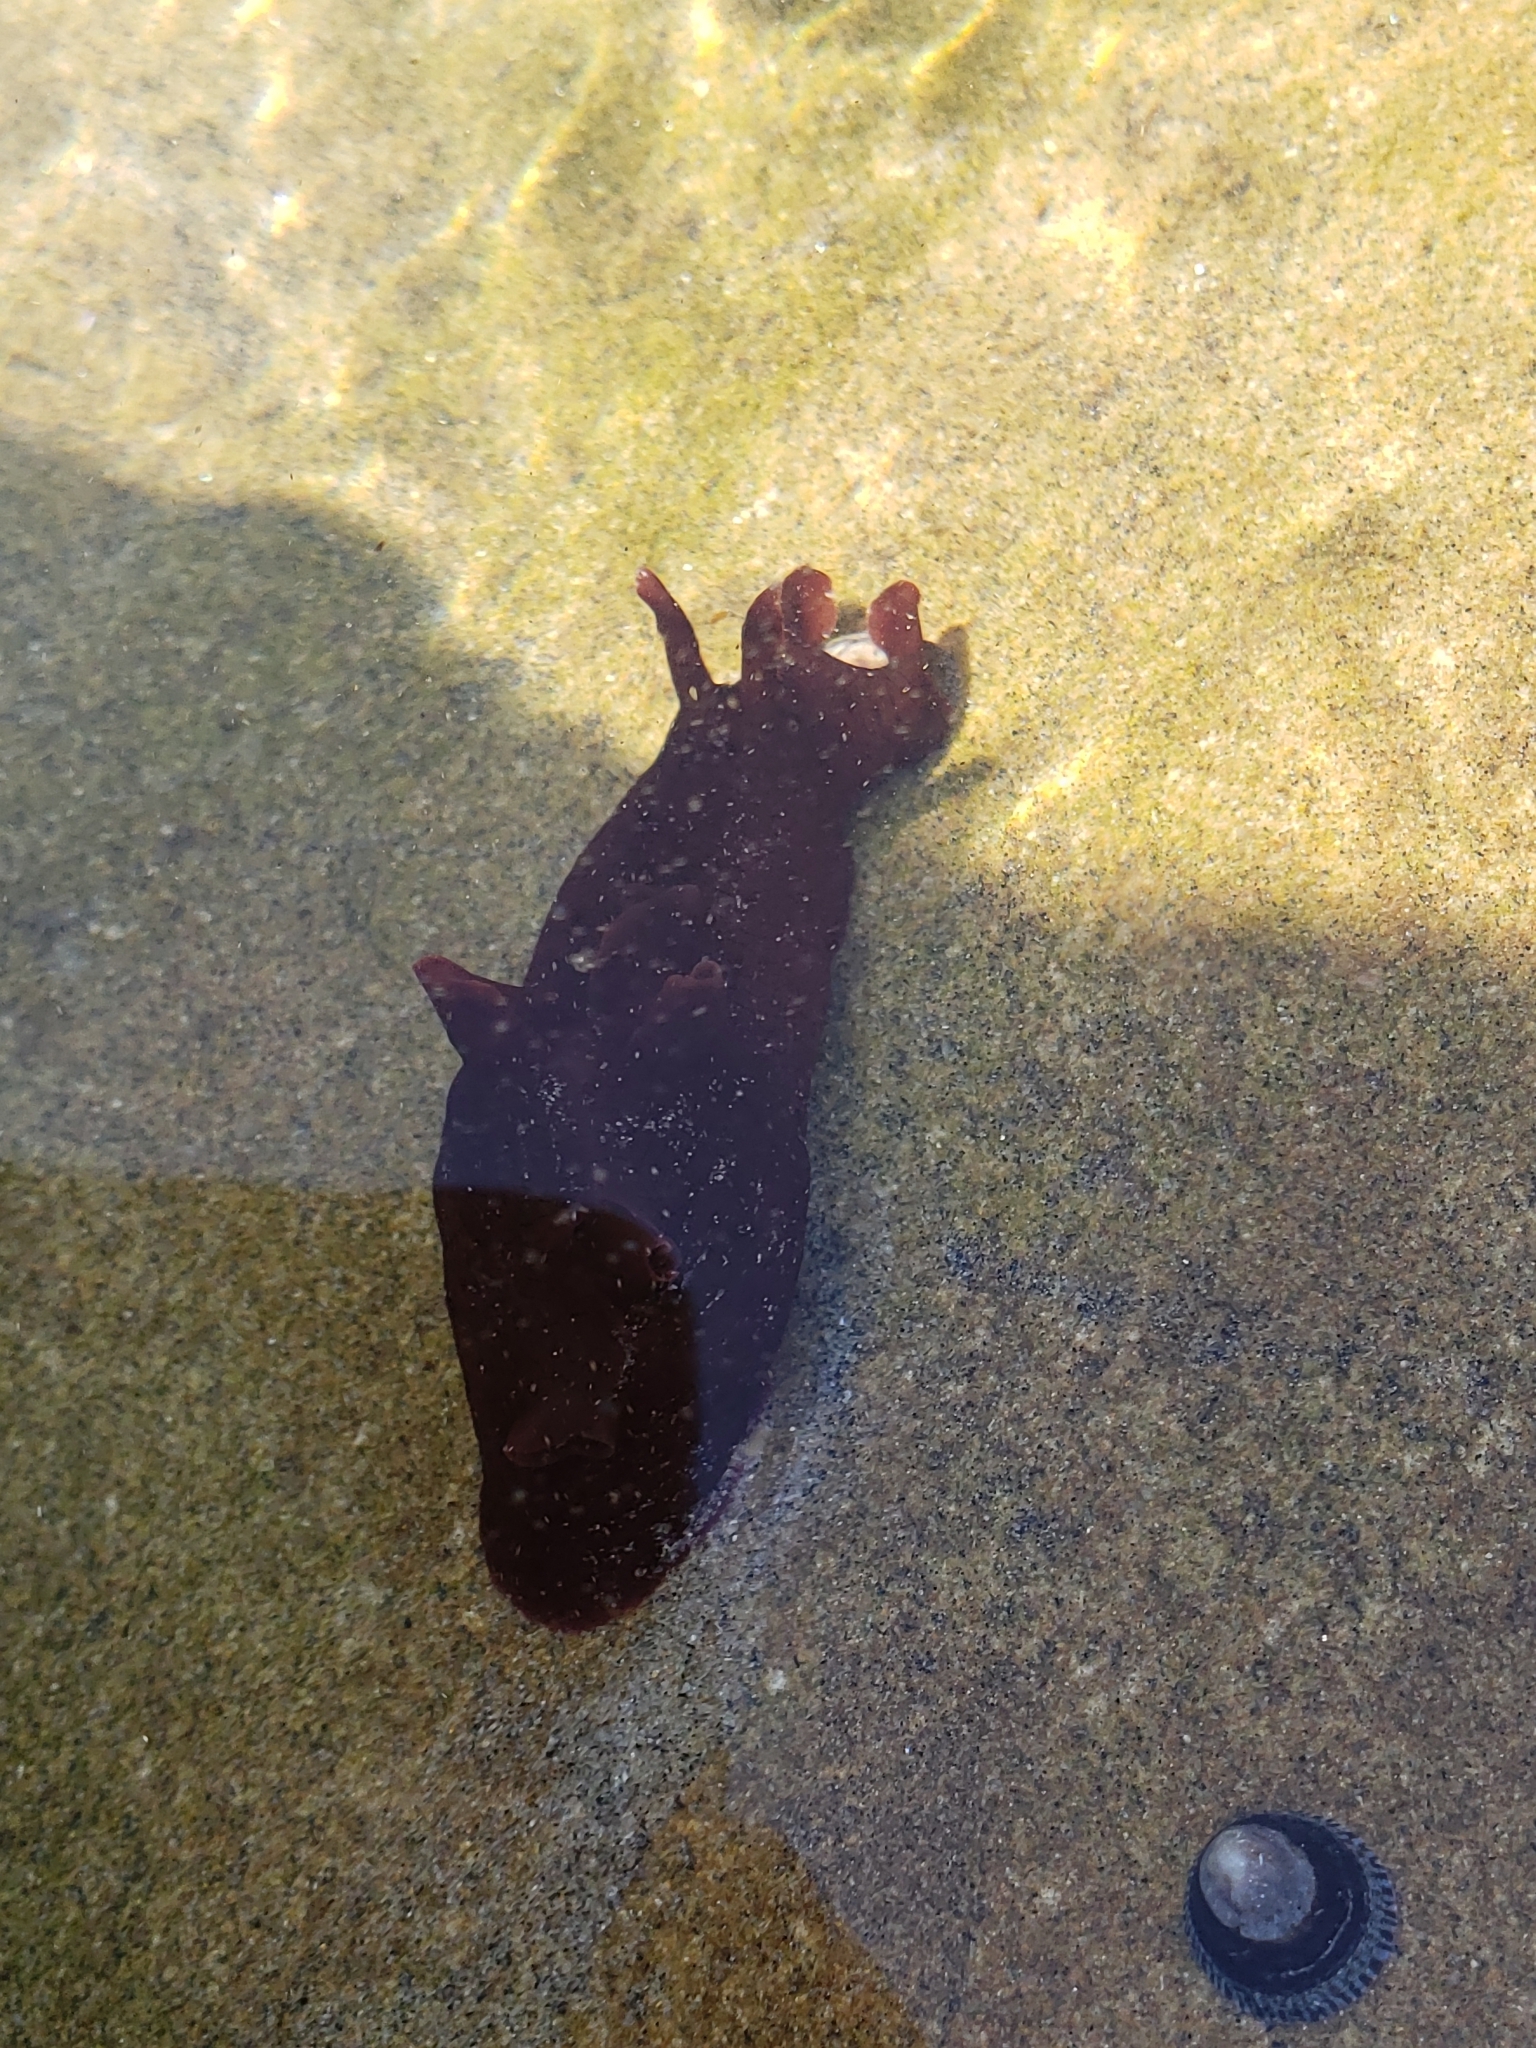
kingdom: Animalia
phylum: Mollusca
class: Gastropoda
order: Aplysiida
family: Aplysiidae
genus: Aplysia
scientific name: Aplysia californica
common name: California seahare
